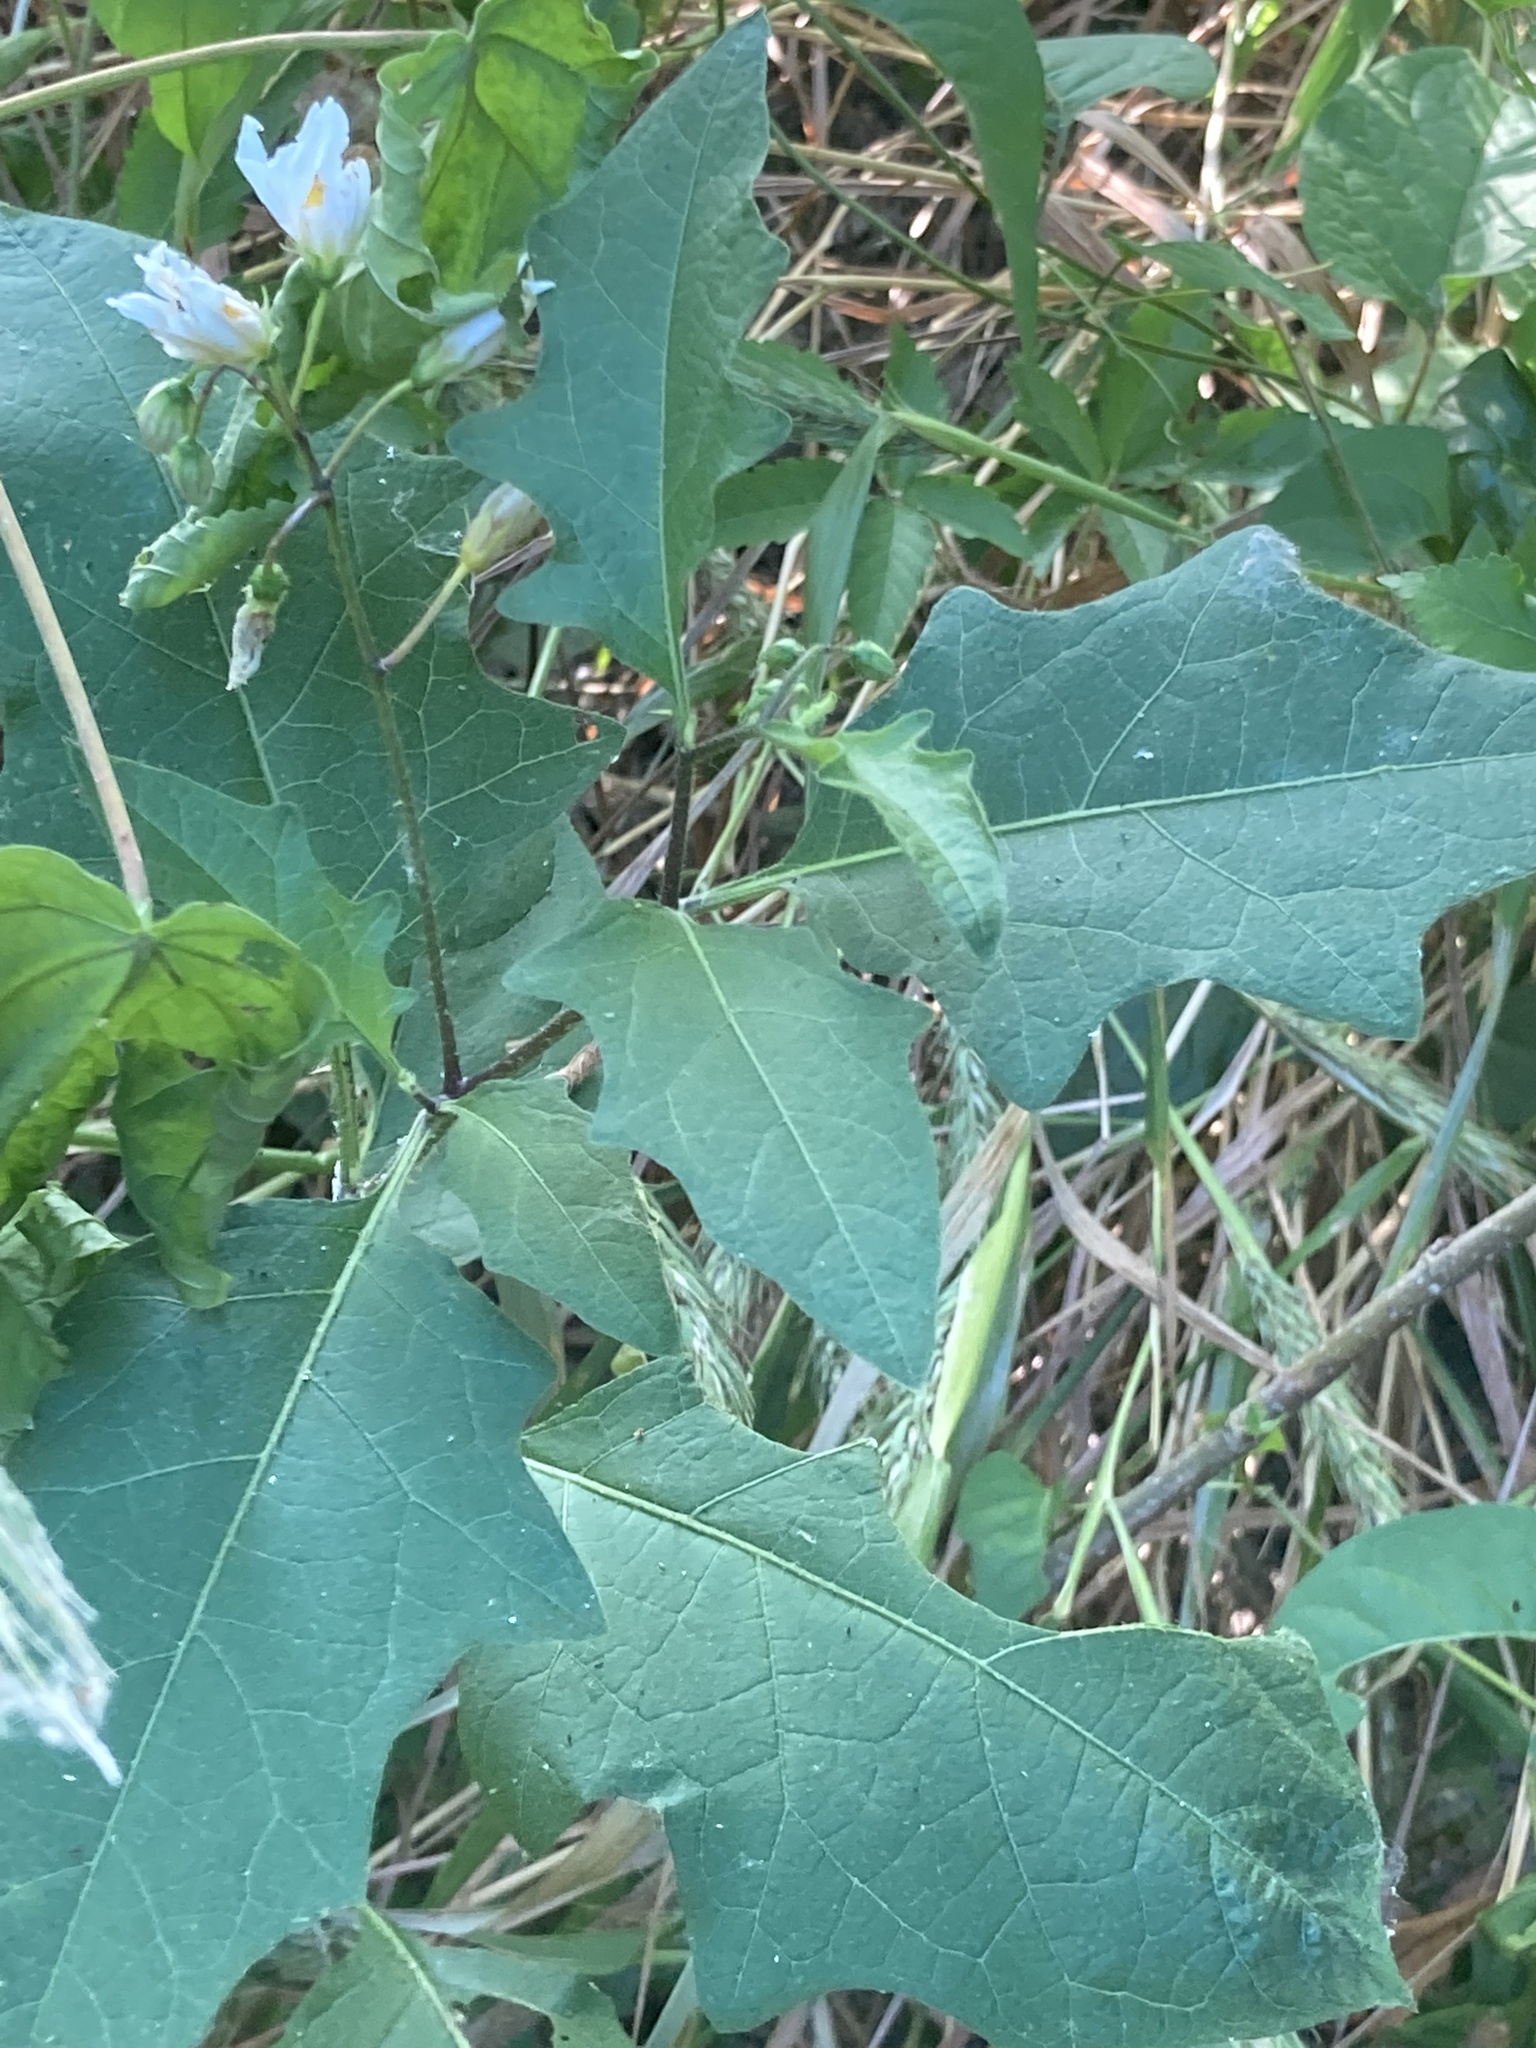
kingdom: Plantae
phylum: Tracheophyta
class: Magnoliopsida
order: Solanales
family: Solanaceae
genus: Solanum
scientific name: Solanum carolinense
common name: Horse-nettle
